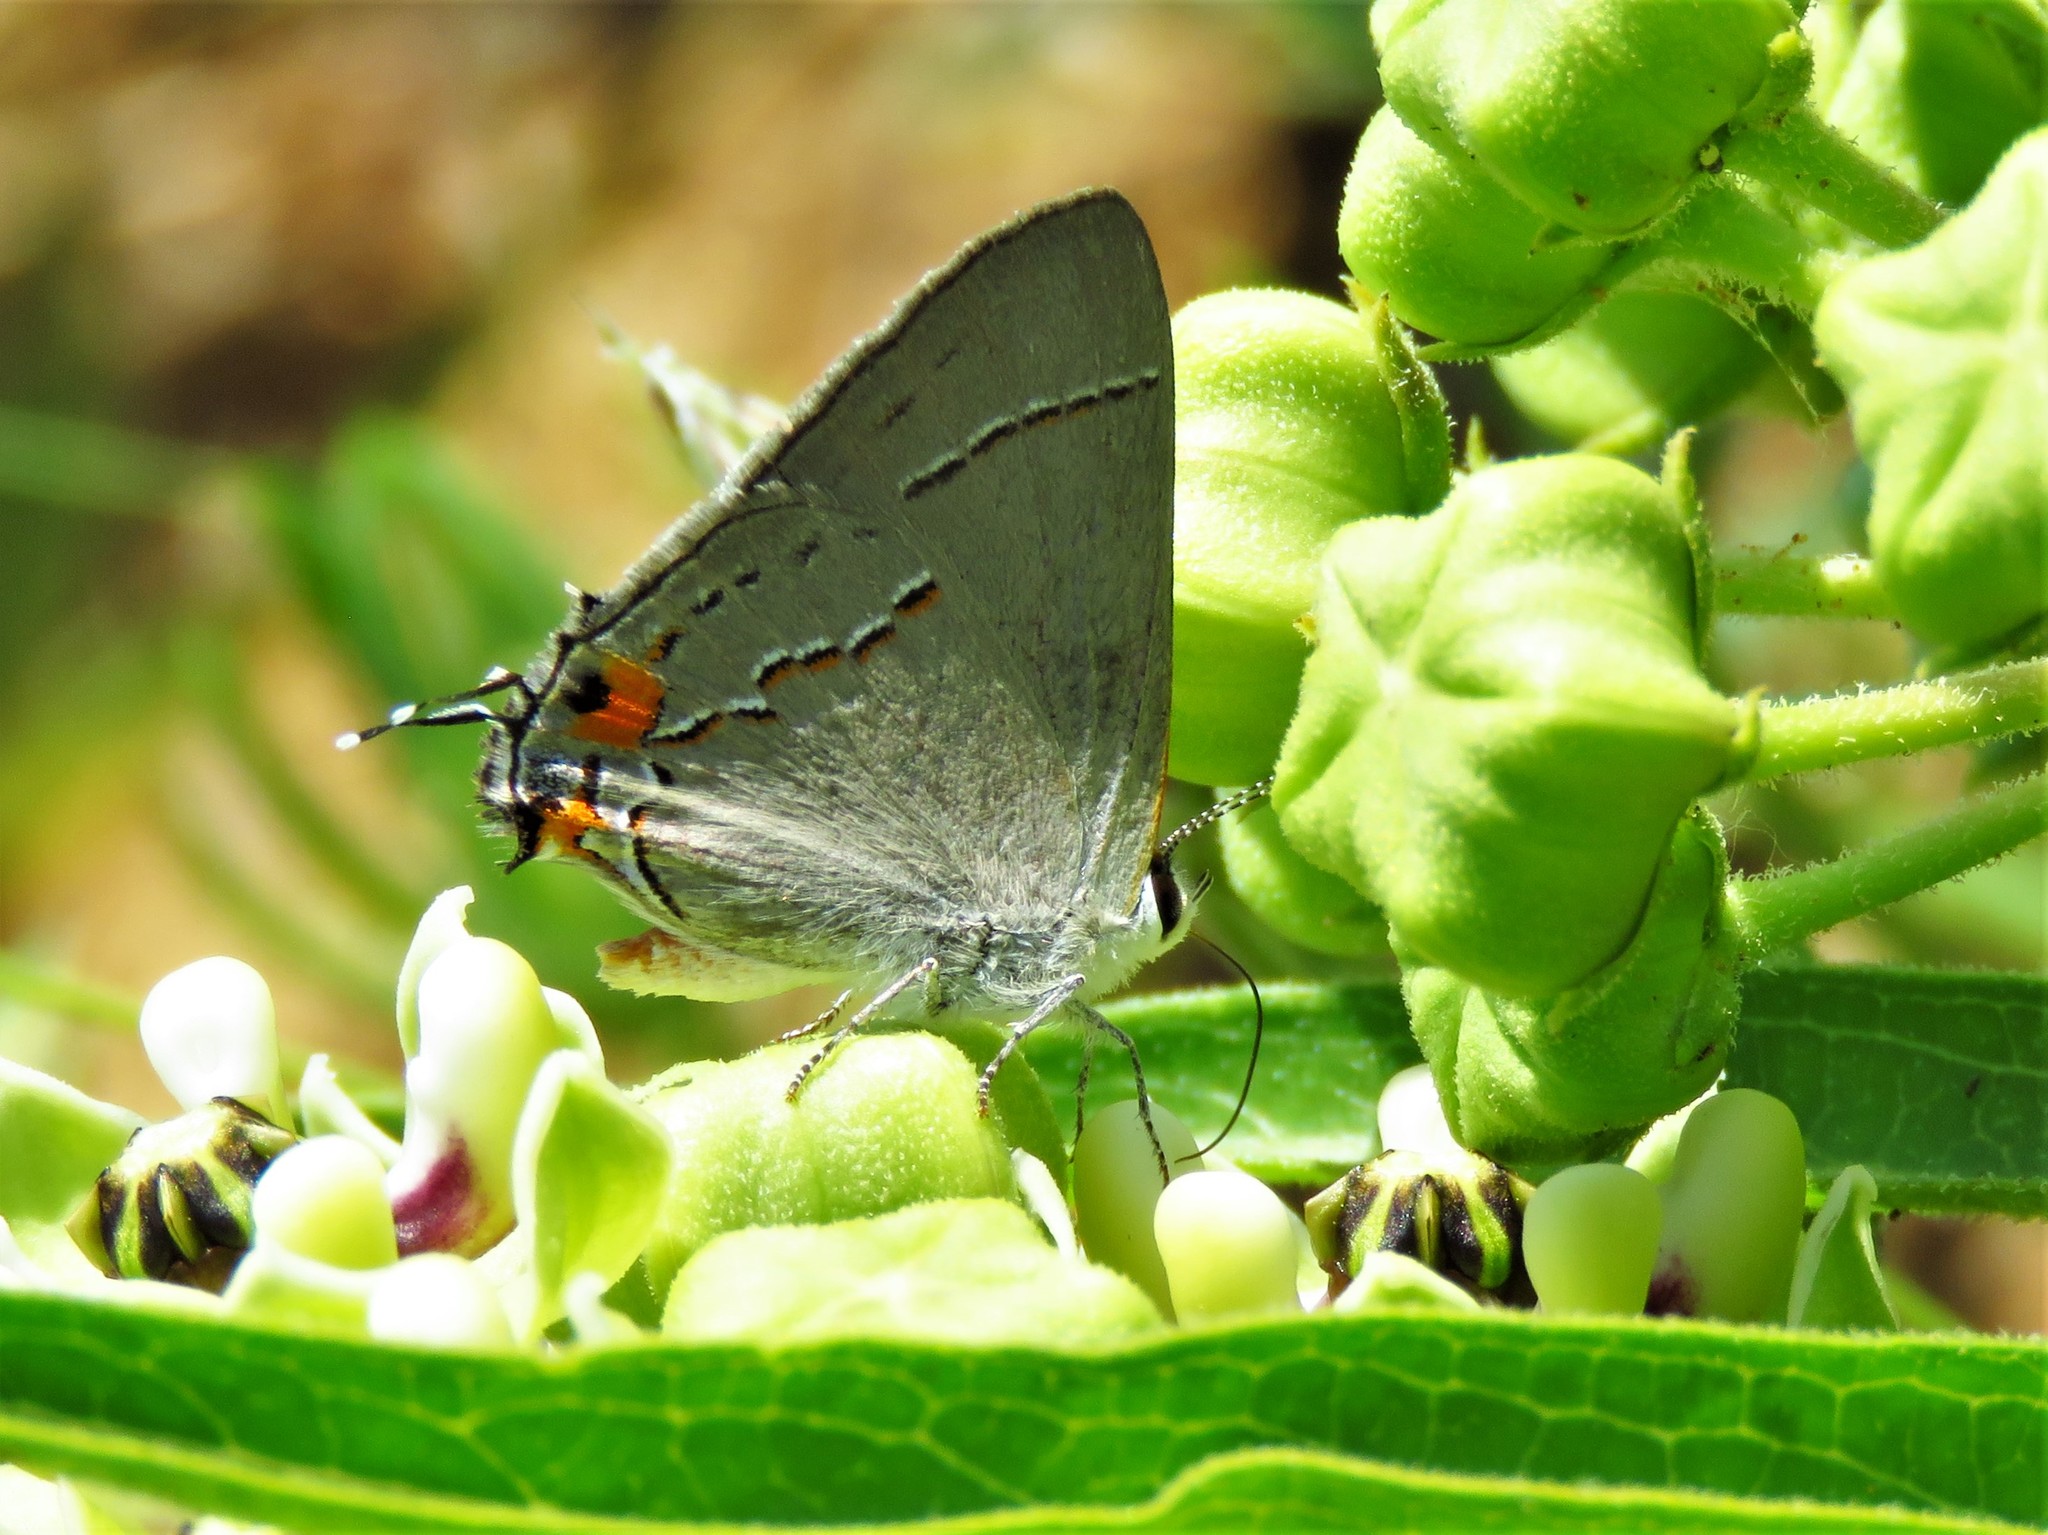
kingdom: Animalia
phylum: Arthropoda
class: Insecta
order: Lepidoptera
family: Lycaenidae
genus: Strymon
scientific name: Strymon melinus
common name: Gray hairstreak
